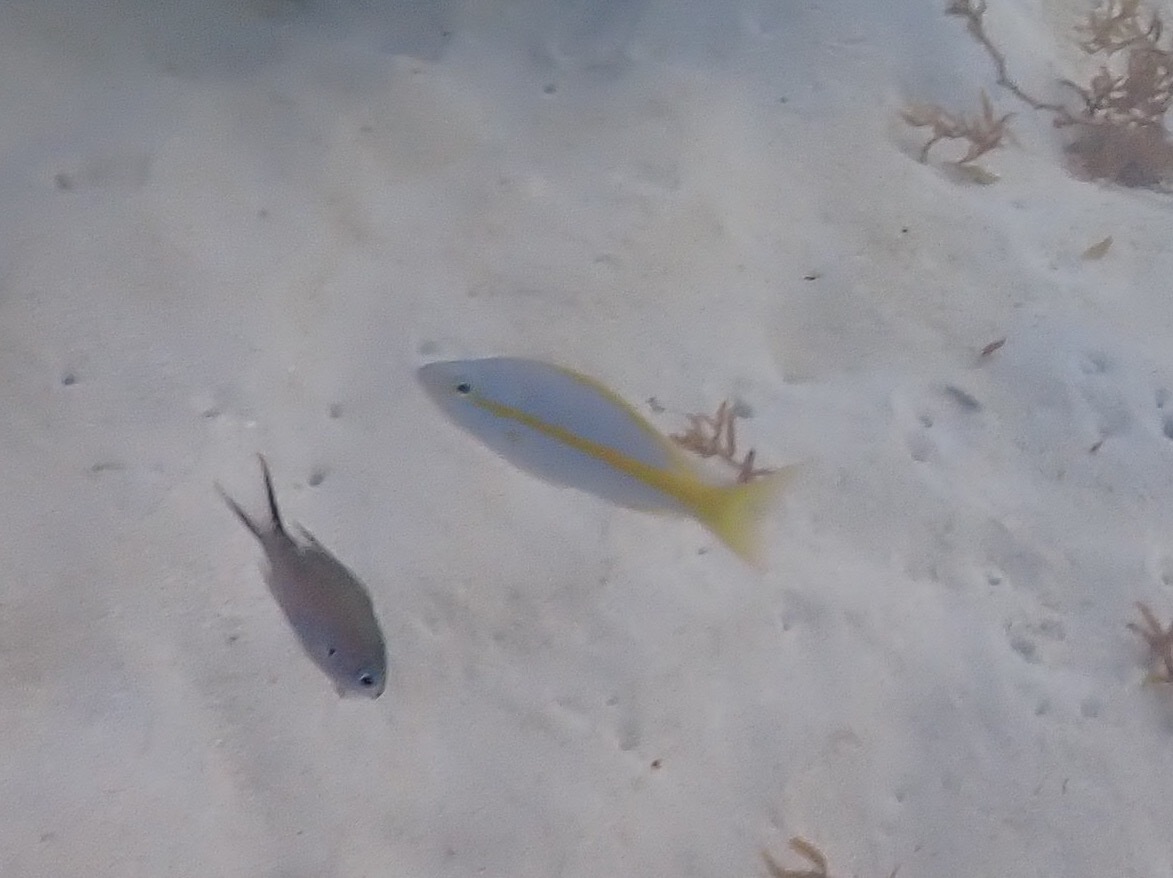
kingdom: Animalia
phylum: Chordata
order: Perciformes
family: Lutjanidae
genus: Ocyurus
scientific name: Ocyurus chrysurus
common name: Yellowtail snapper
